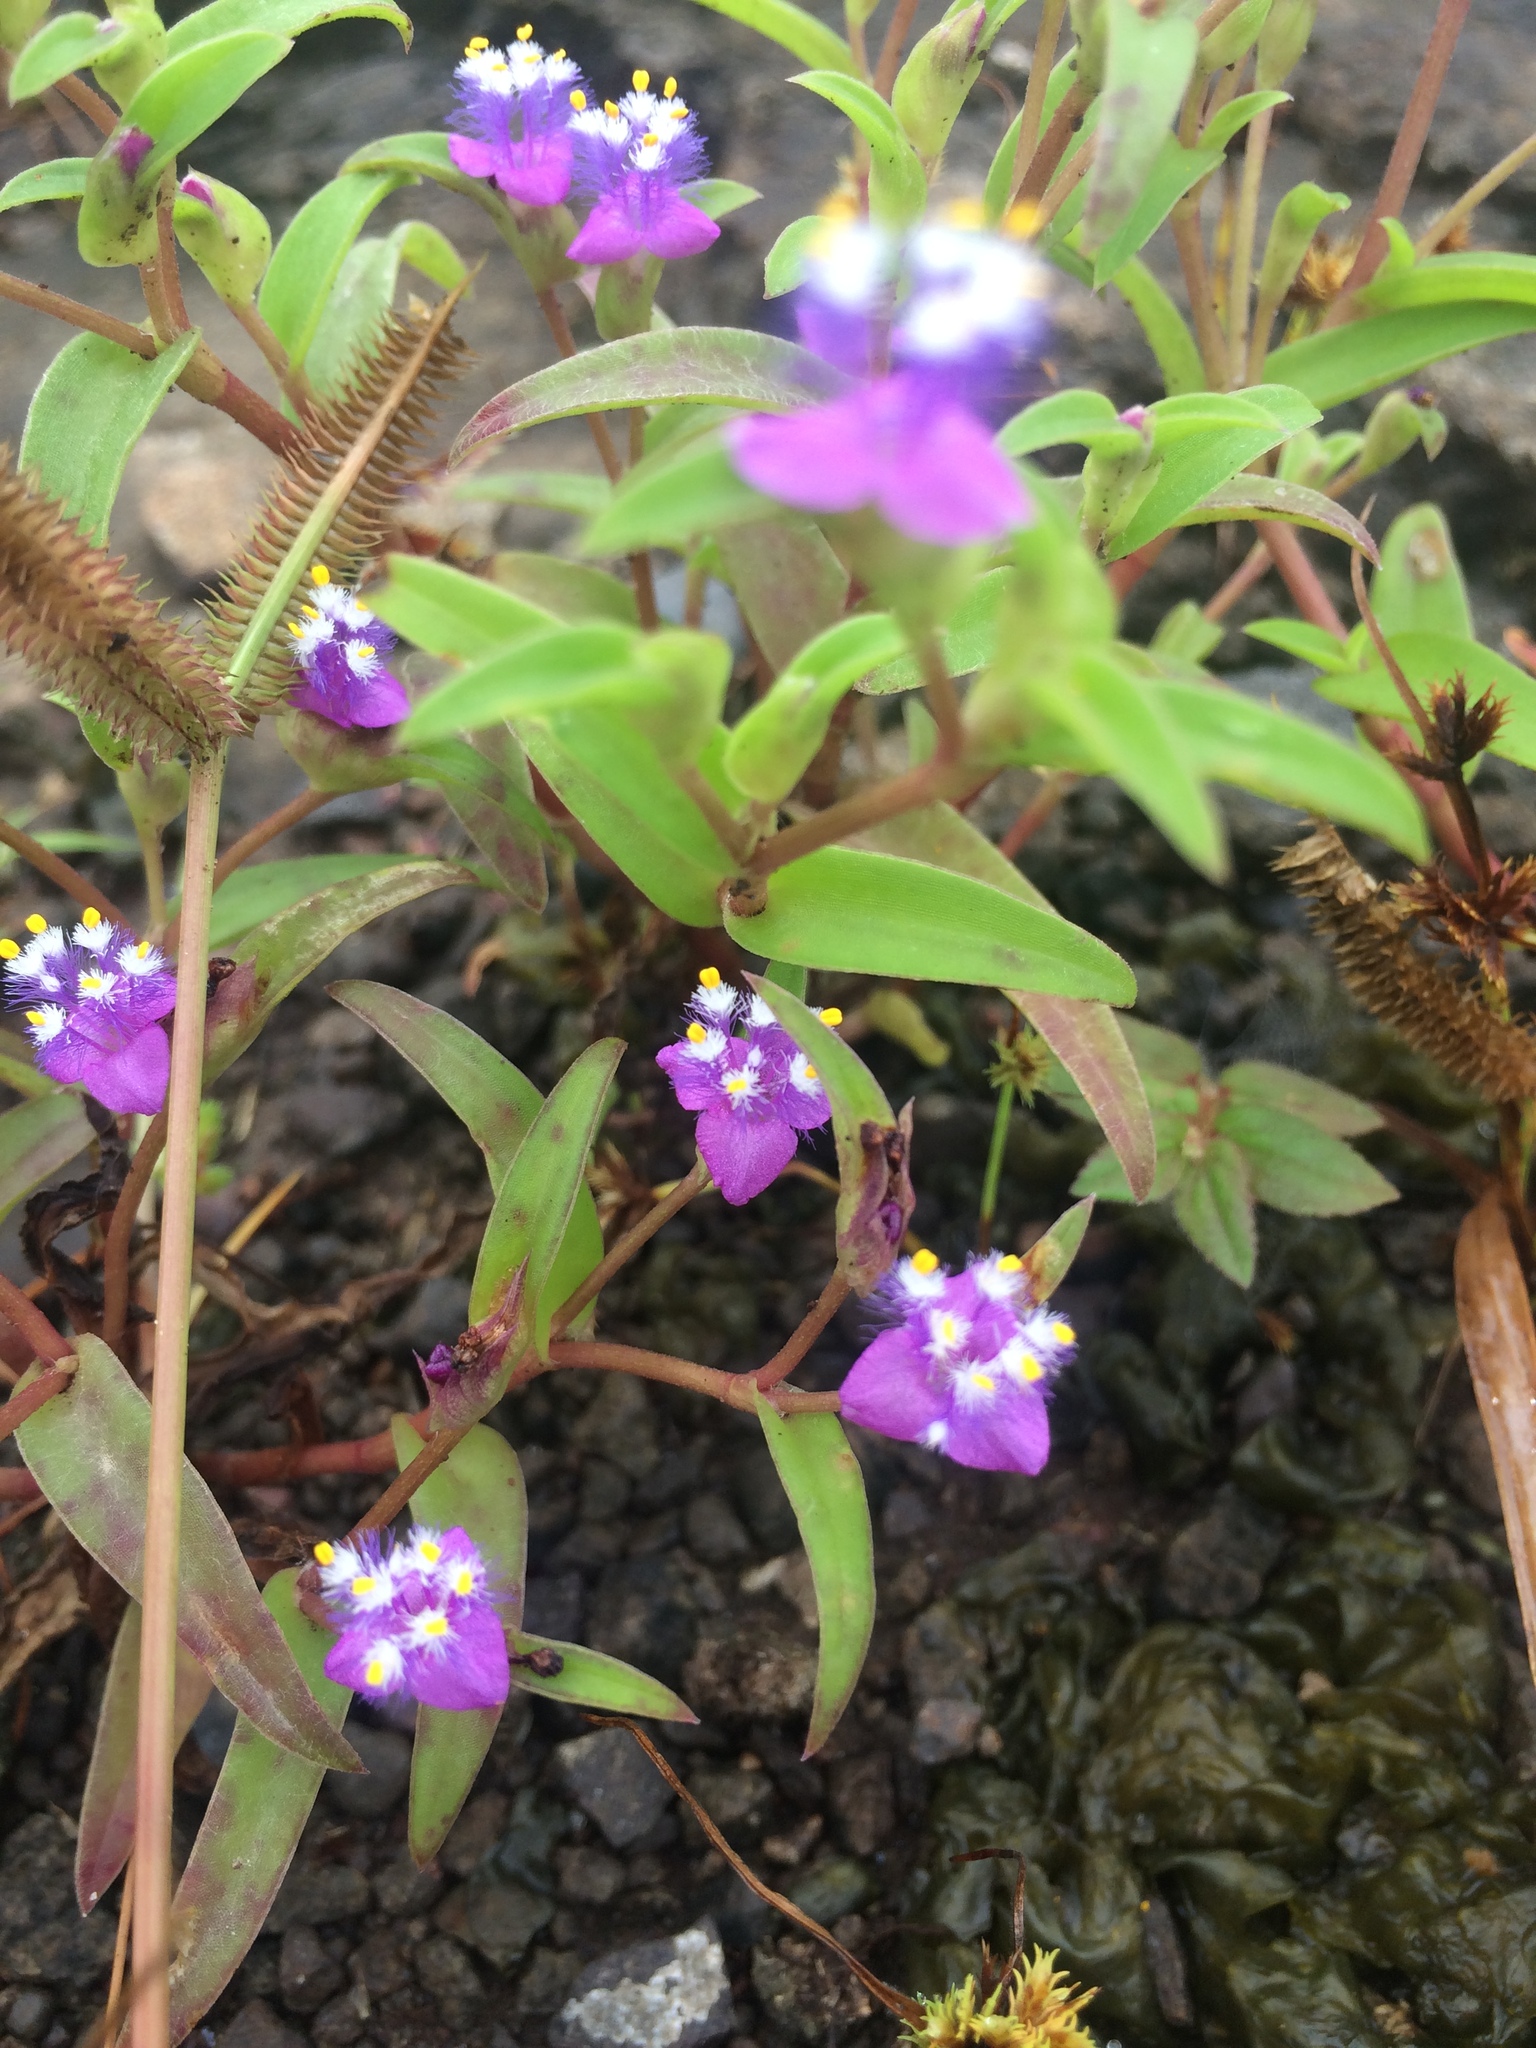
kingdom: Plantae
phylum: Tracheophyta
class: Liliopsida
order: Commelinales
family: Commelinaceae
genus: Cyanotis
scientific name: Cyanotis fasciculata
